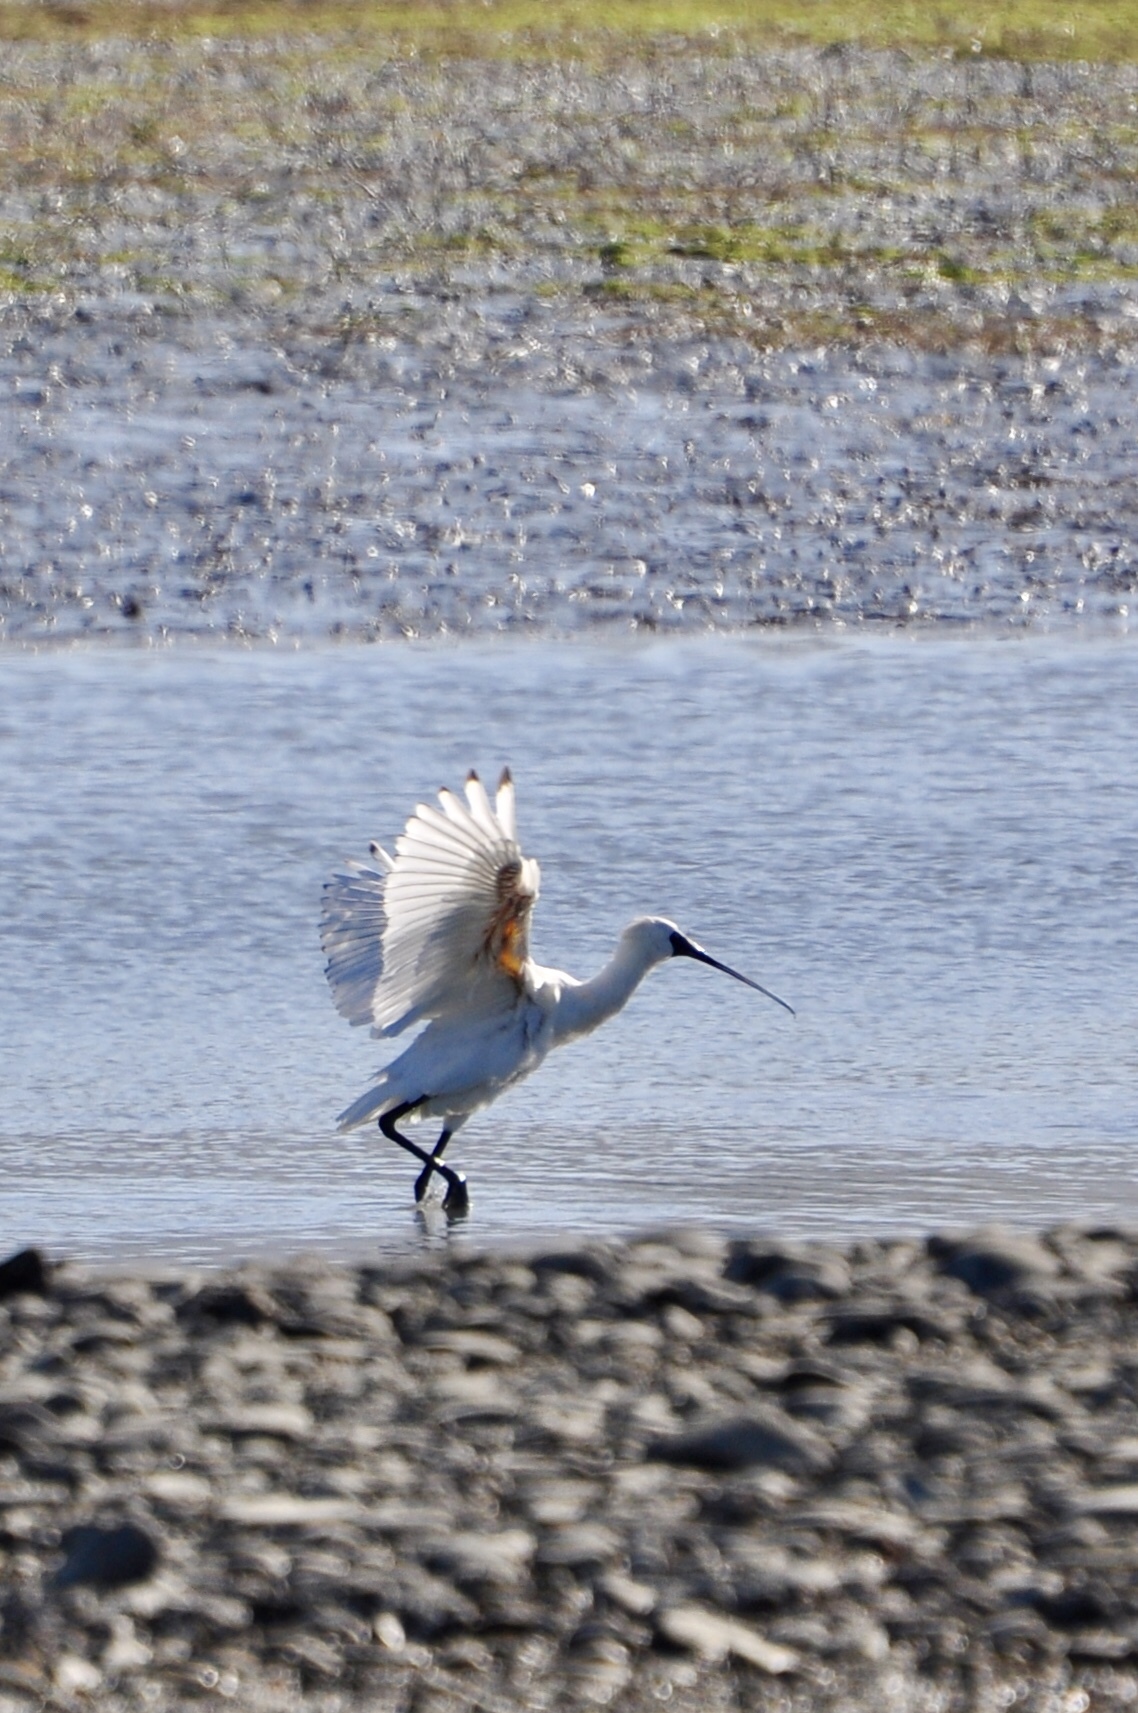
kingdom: Animalia
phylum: Chordata
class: Aves
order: Pelecaniformes
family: Threskiornithidae
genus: Platalea
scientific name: Platalea regia
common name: Royal spoonbill
